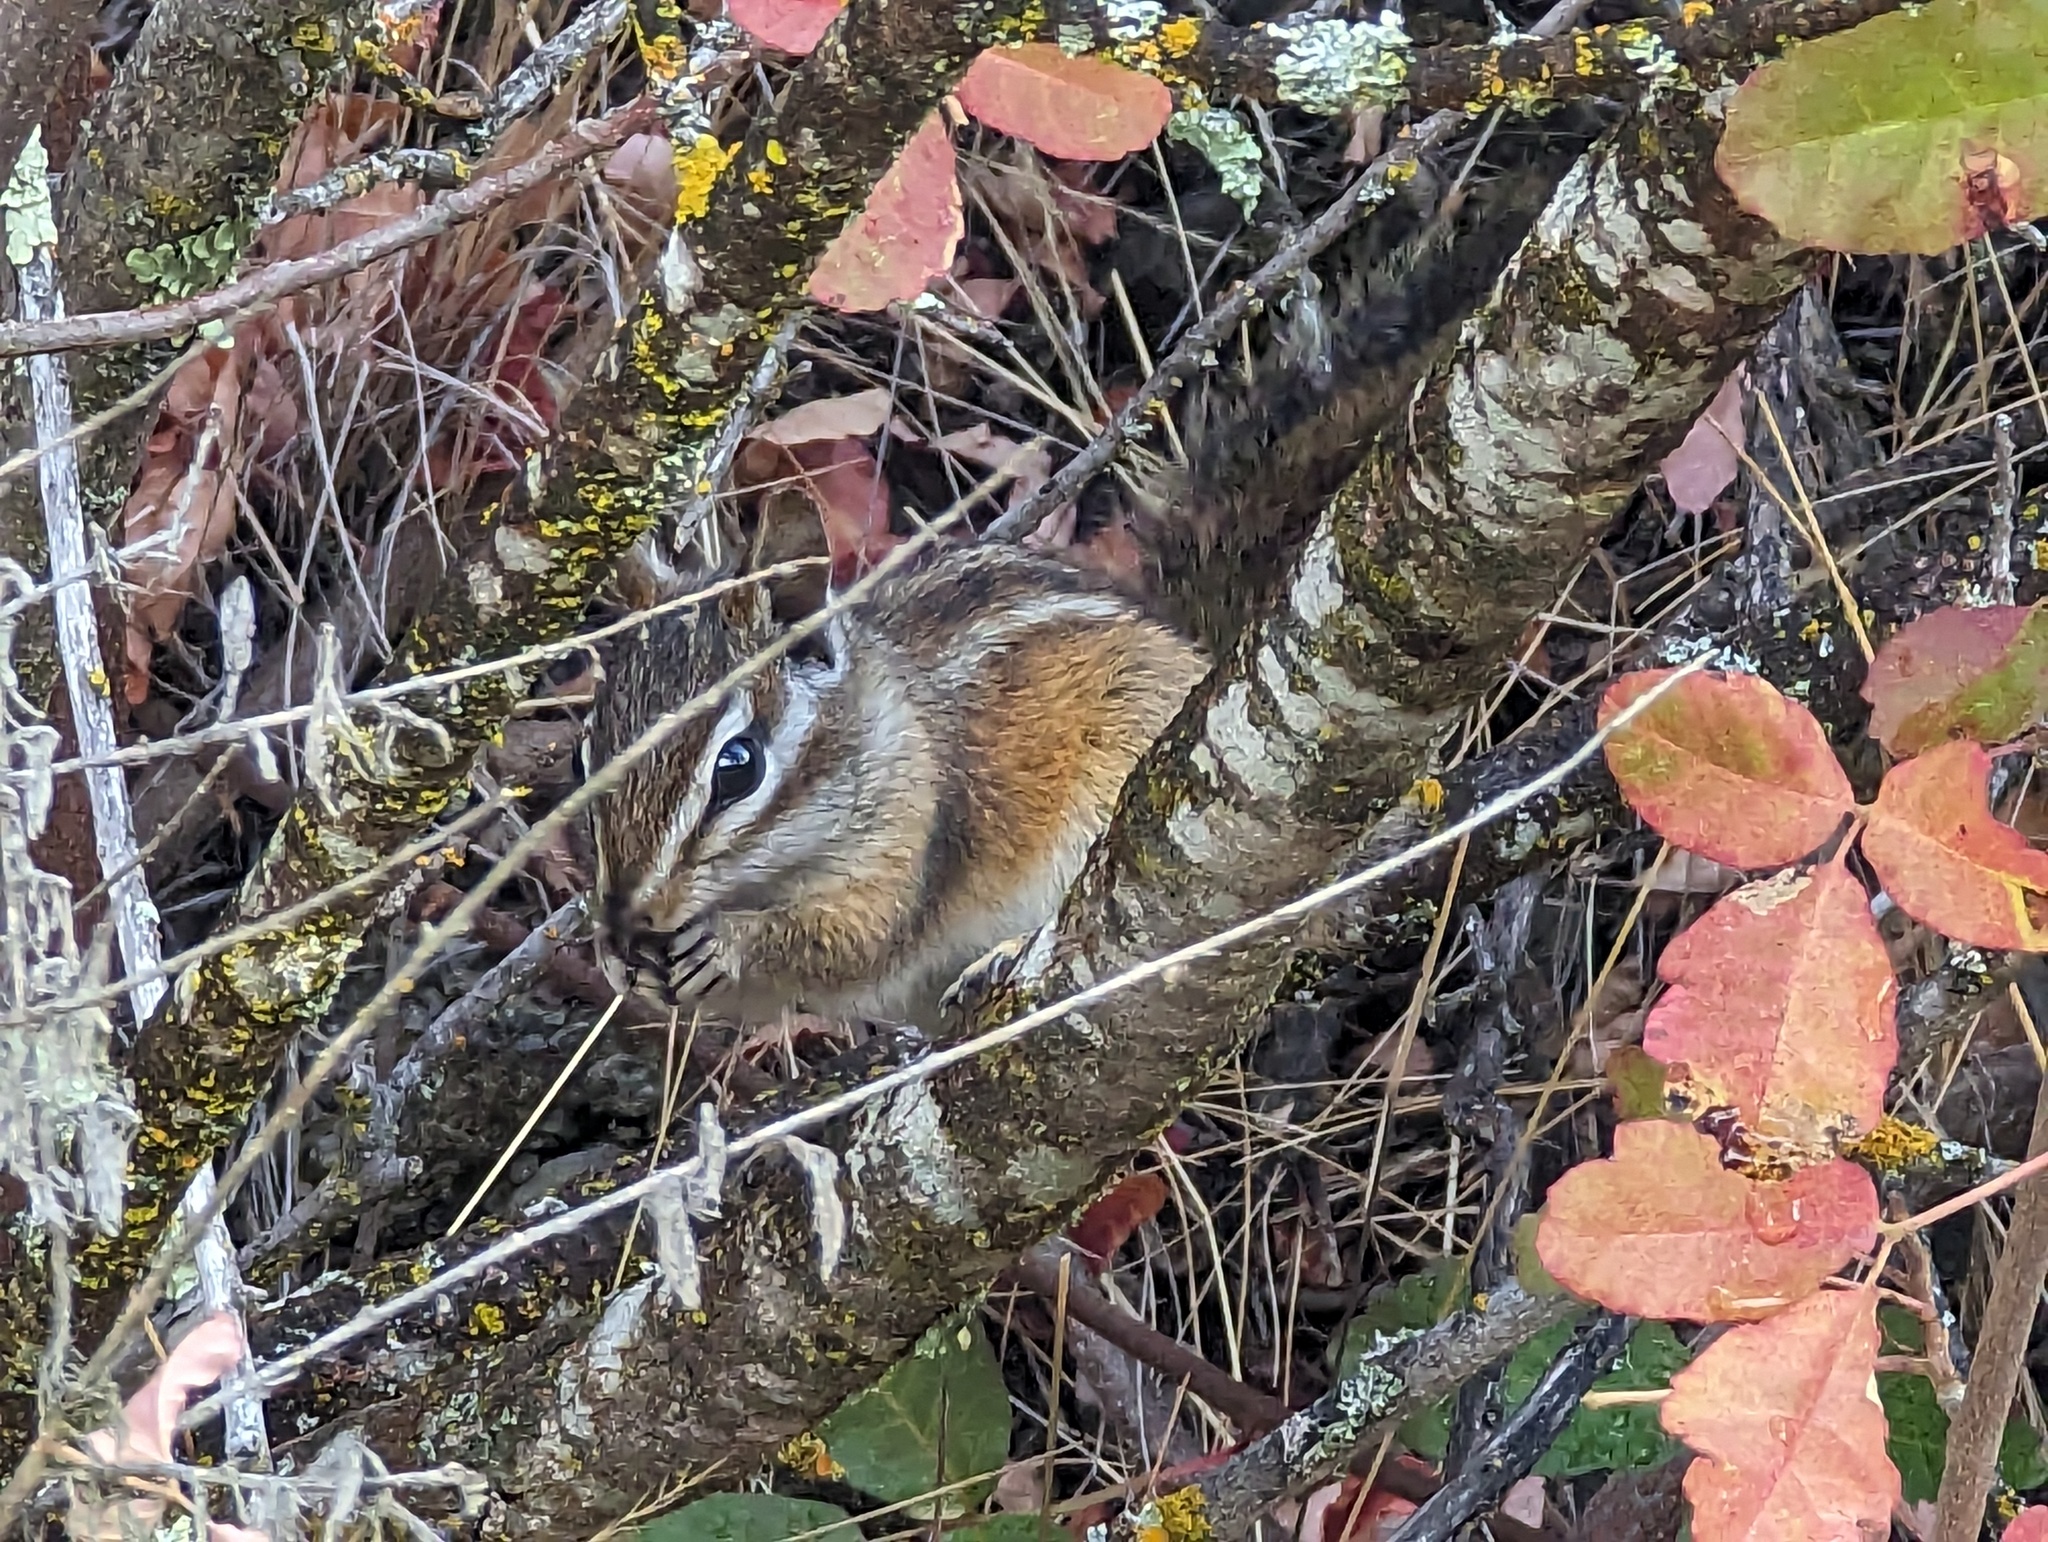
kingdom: Animalia
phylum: Chordata
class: Mammalia
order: Rodentia
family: Sciuridae
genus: Tamias
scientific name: Tamias merriami
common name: Merriam's chipmunk
